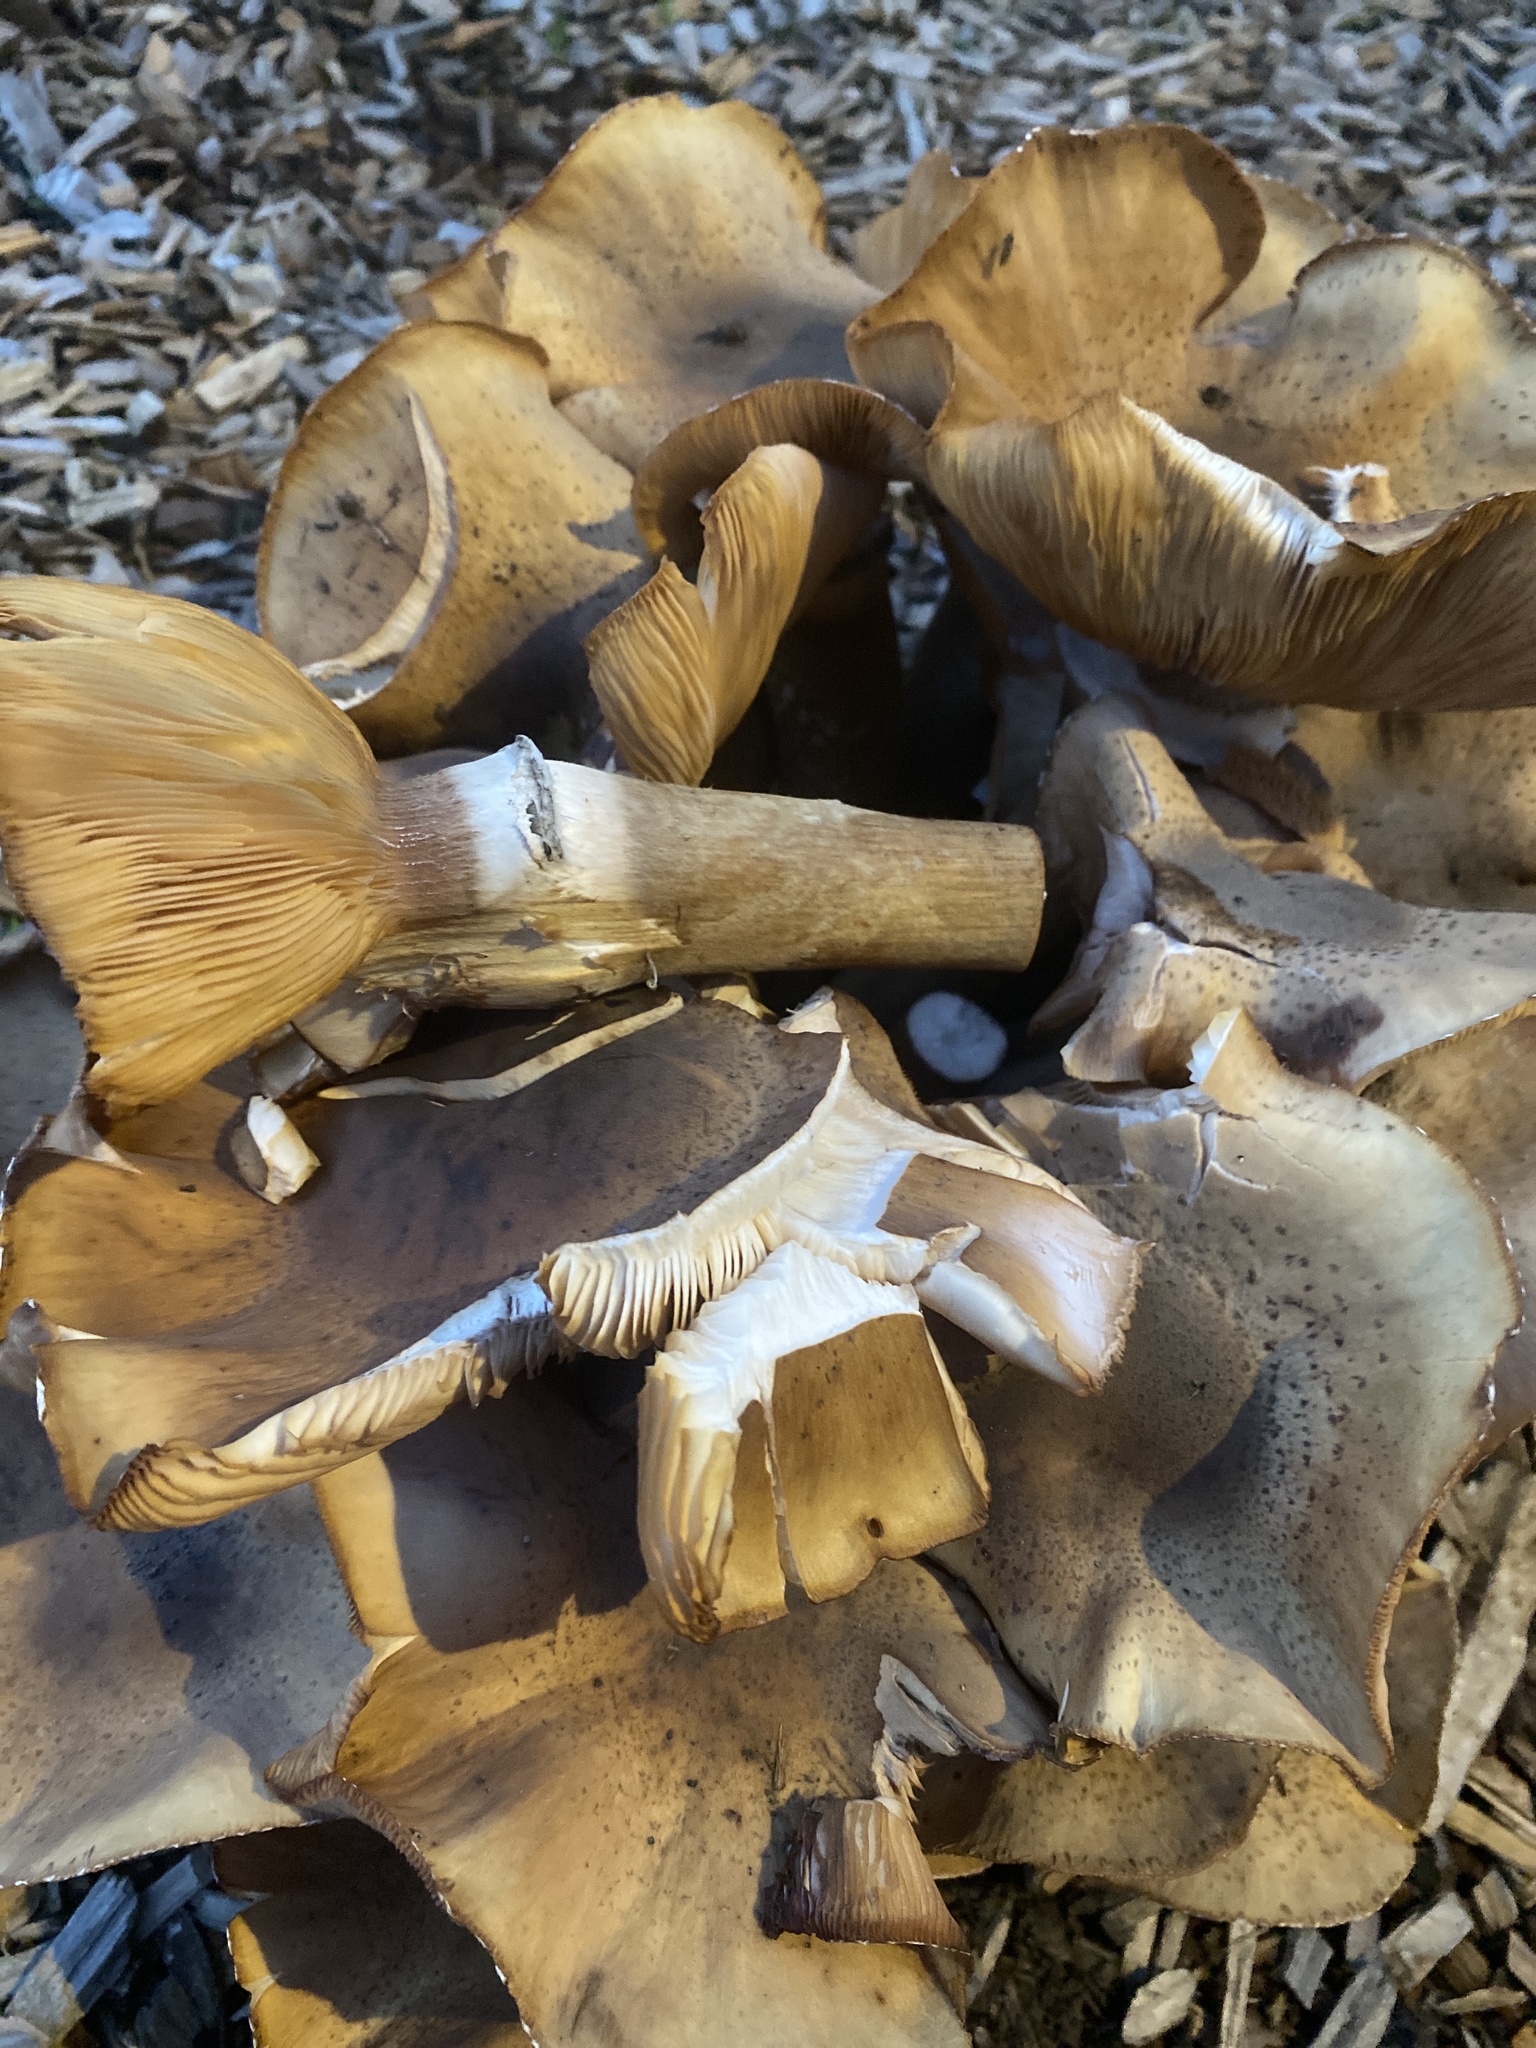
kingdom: Fungi
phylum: Basidiomycota
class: Agaricomycetes
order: Agaricales
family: Physalacriaceae
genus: Armillaria
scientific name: Armillaria mellea
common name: Honey fungus
